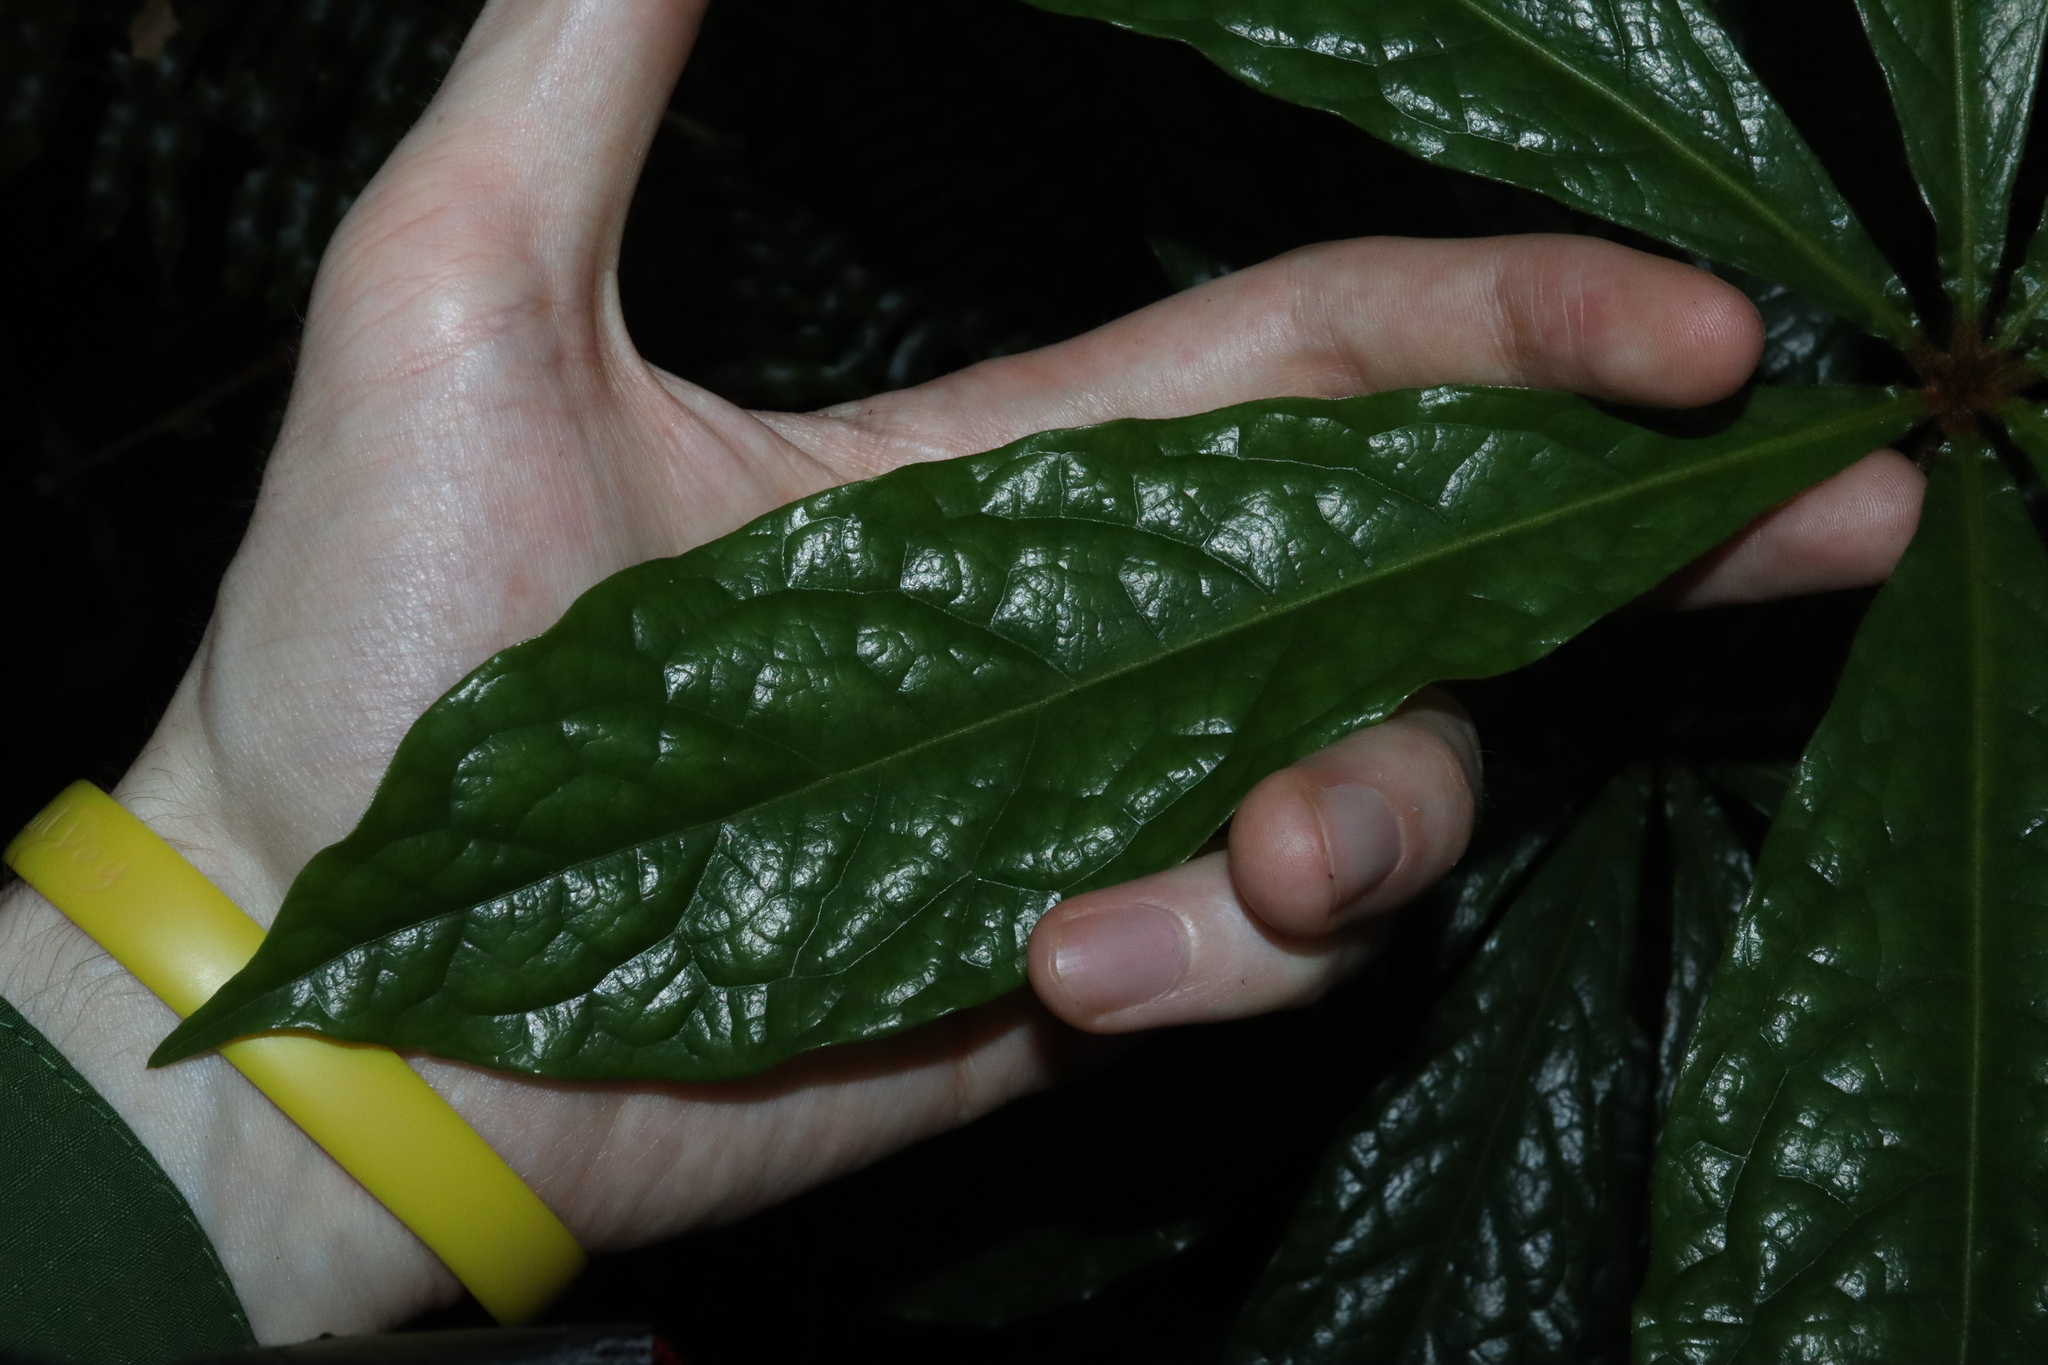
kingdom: Plantae
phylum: Tracheophyta
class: Magnoliopsida
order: Apiales
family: Pittosporaceae
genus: Pittosporum
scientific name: Pittosporum rubiginosum
